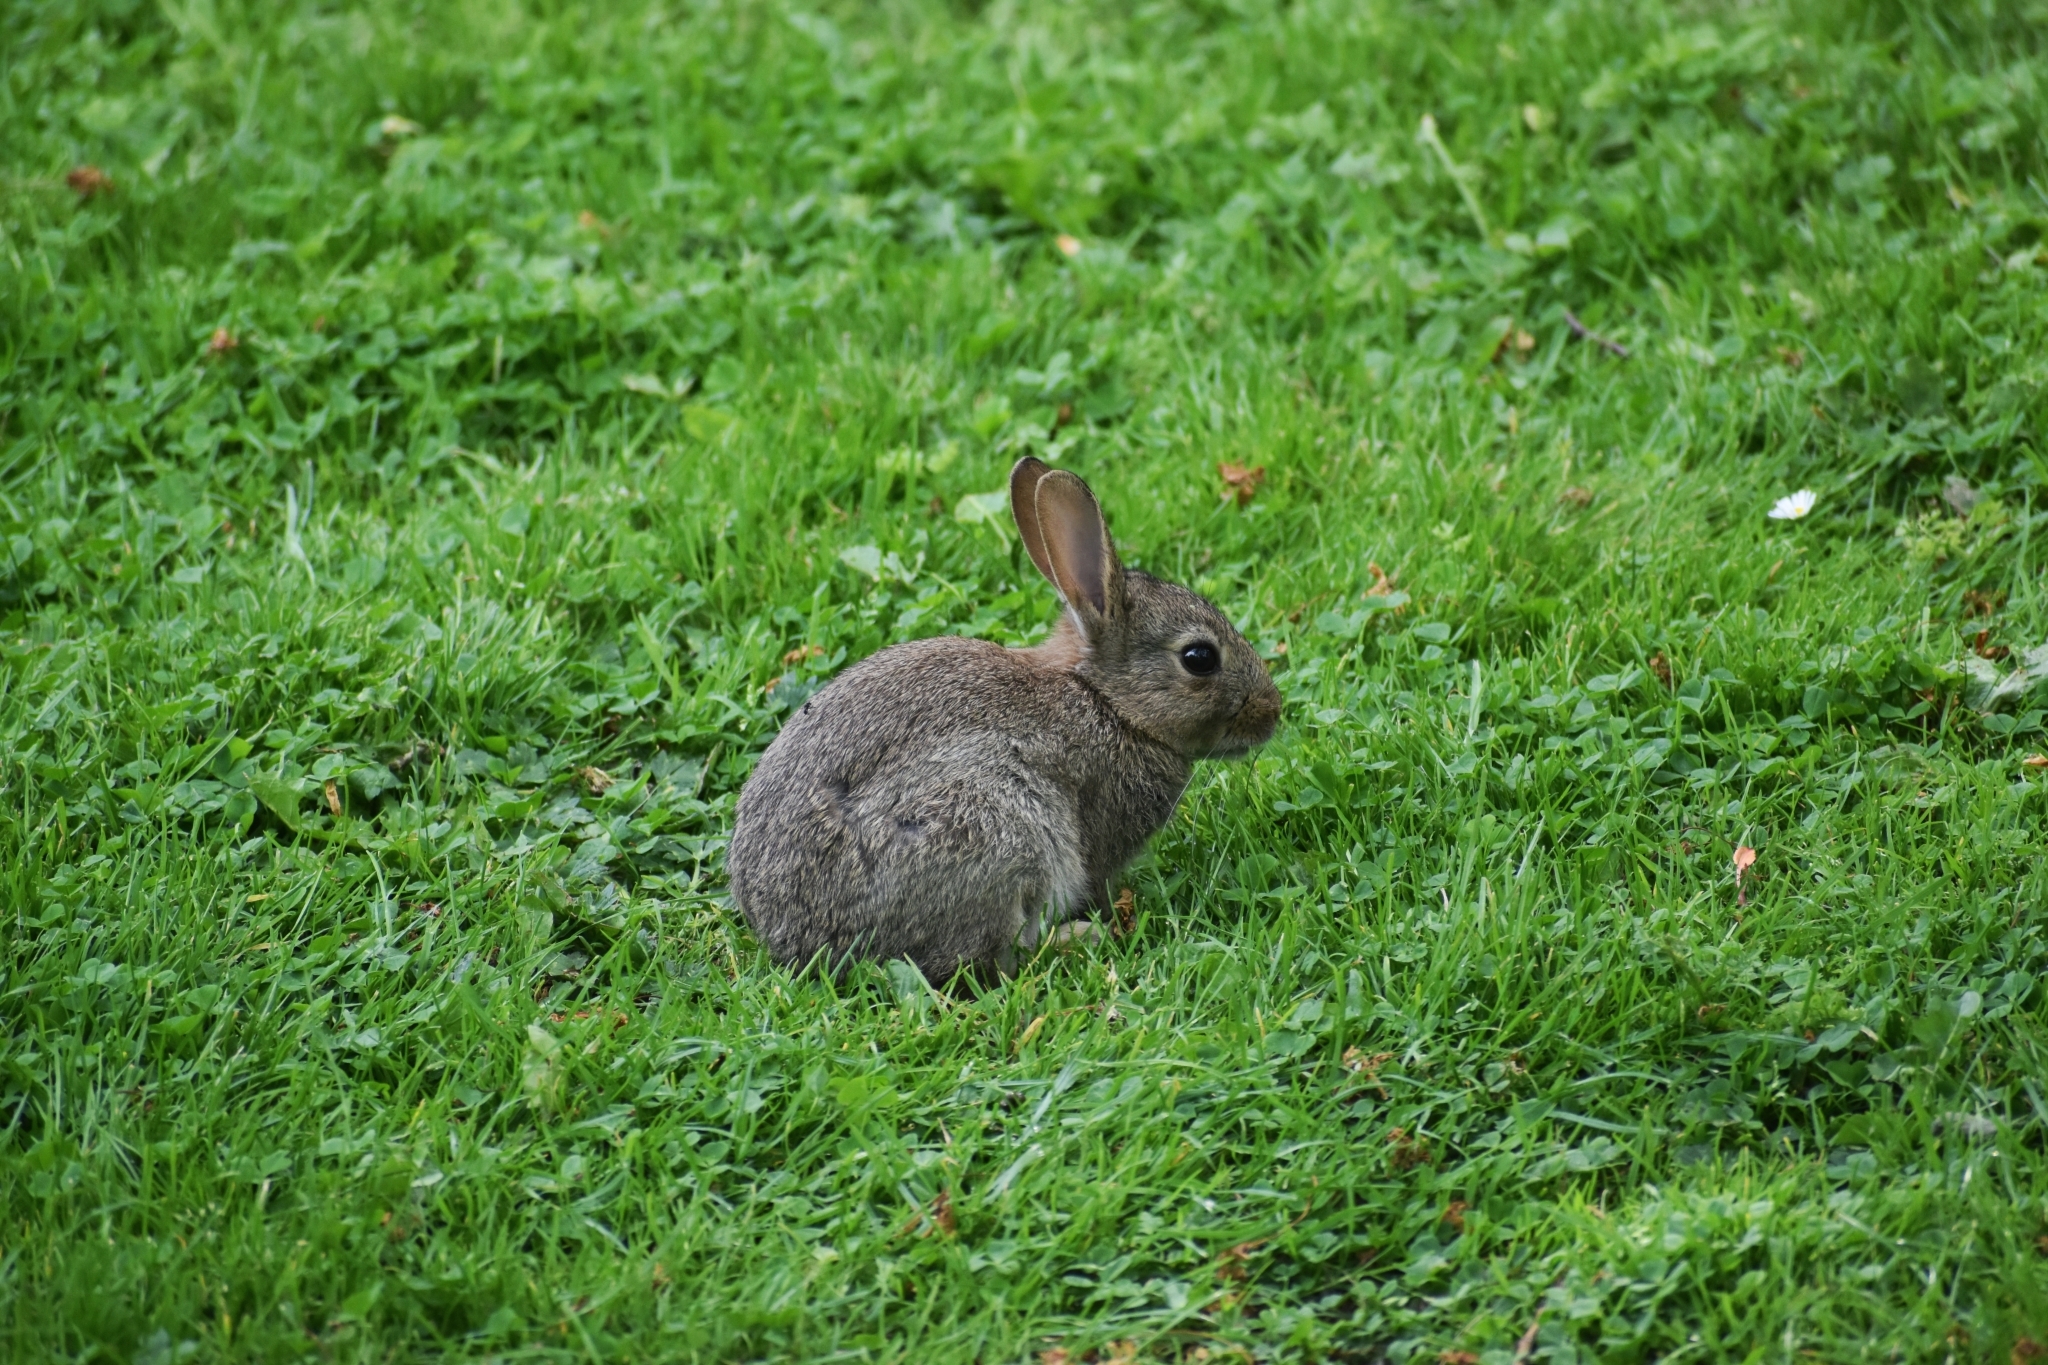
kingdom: Animalia
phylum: Chordata
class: Mammalia
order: Lagomorpha
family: Leporidae
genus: Oryctolagus
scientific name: Oryctolagus cuniculus
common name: European rabbit
